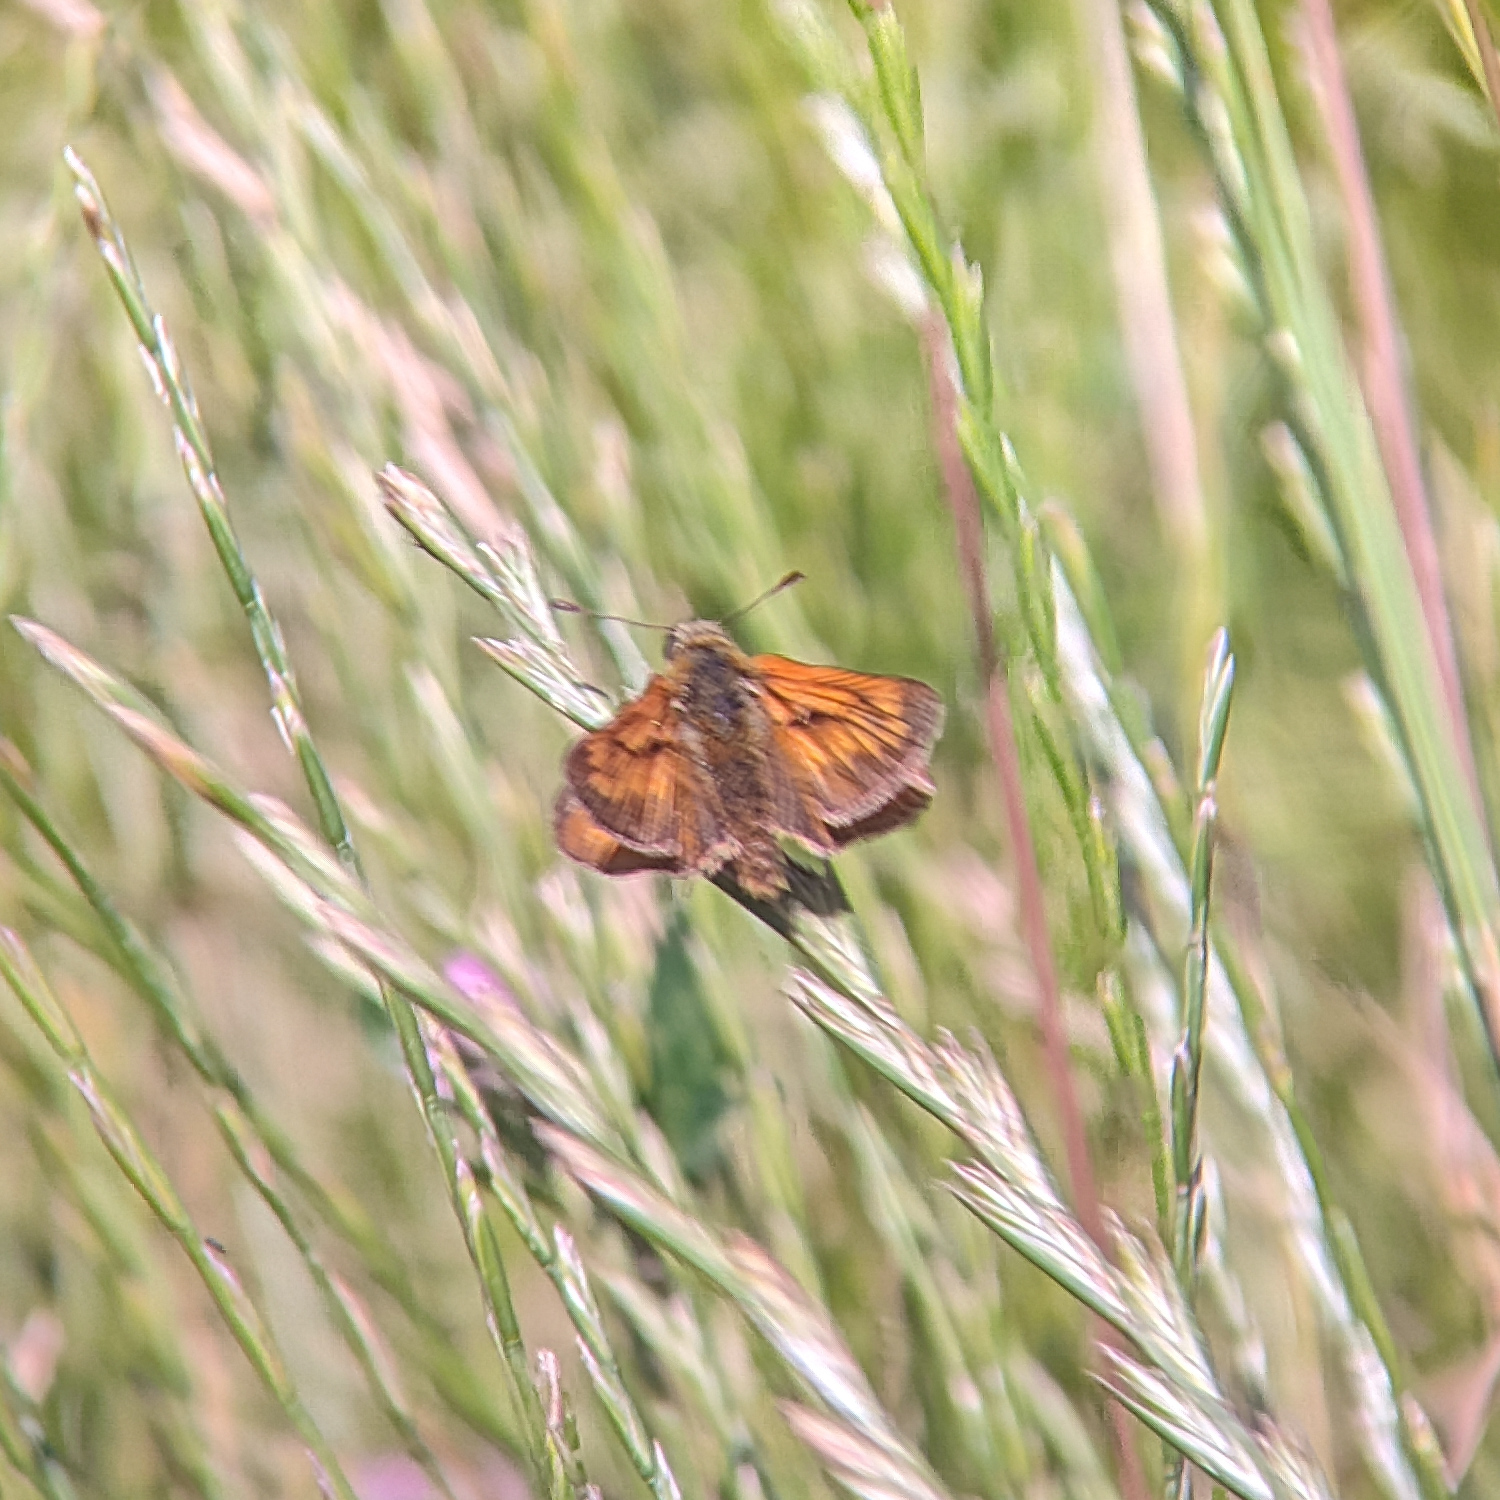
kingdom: Animalia
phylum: Arthropoda
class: Insecta
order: Lepidoptera
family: Hesperiidae
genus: Ochlodes
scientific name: Ochlodes venata
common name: Large skipper
